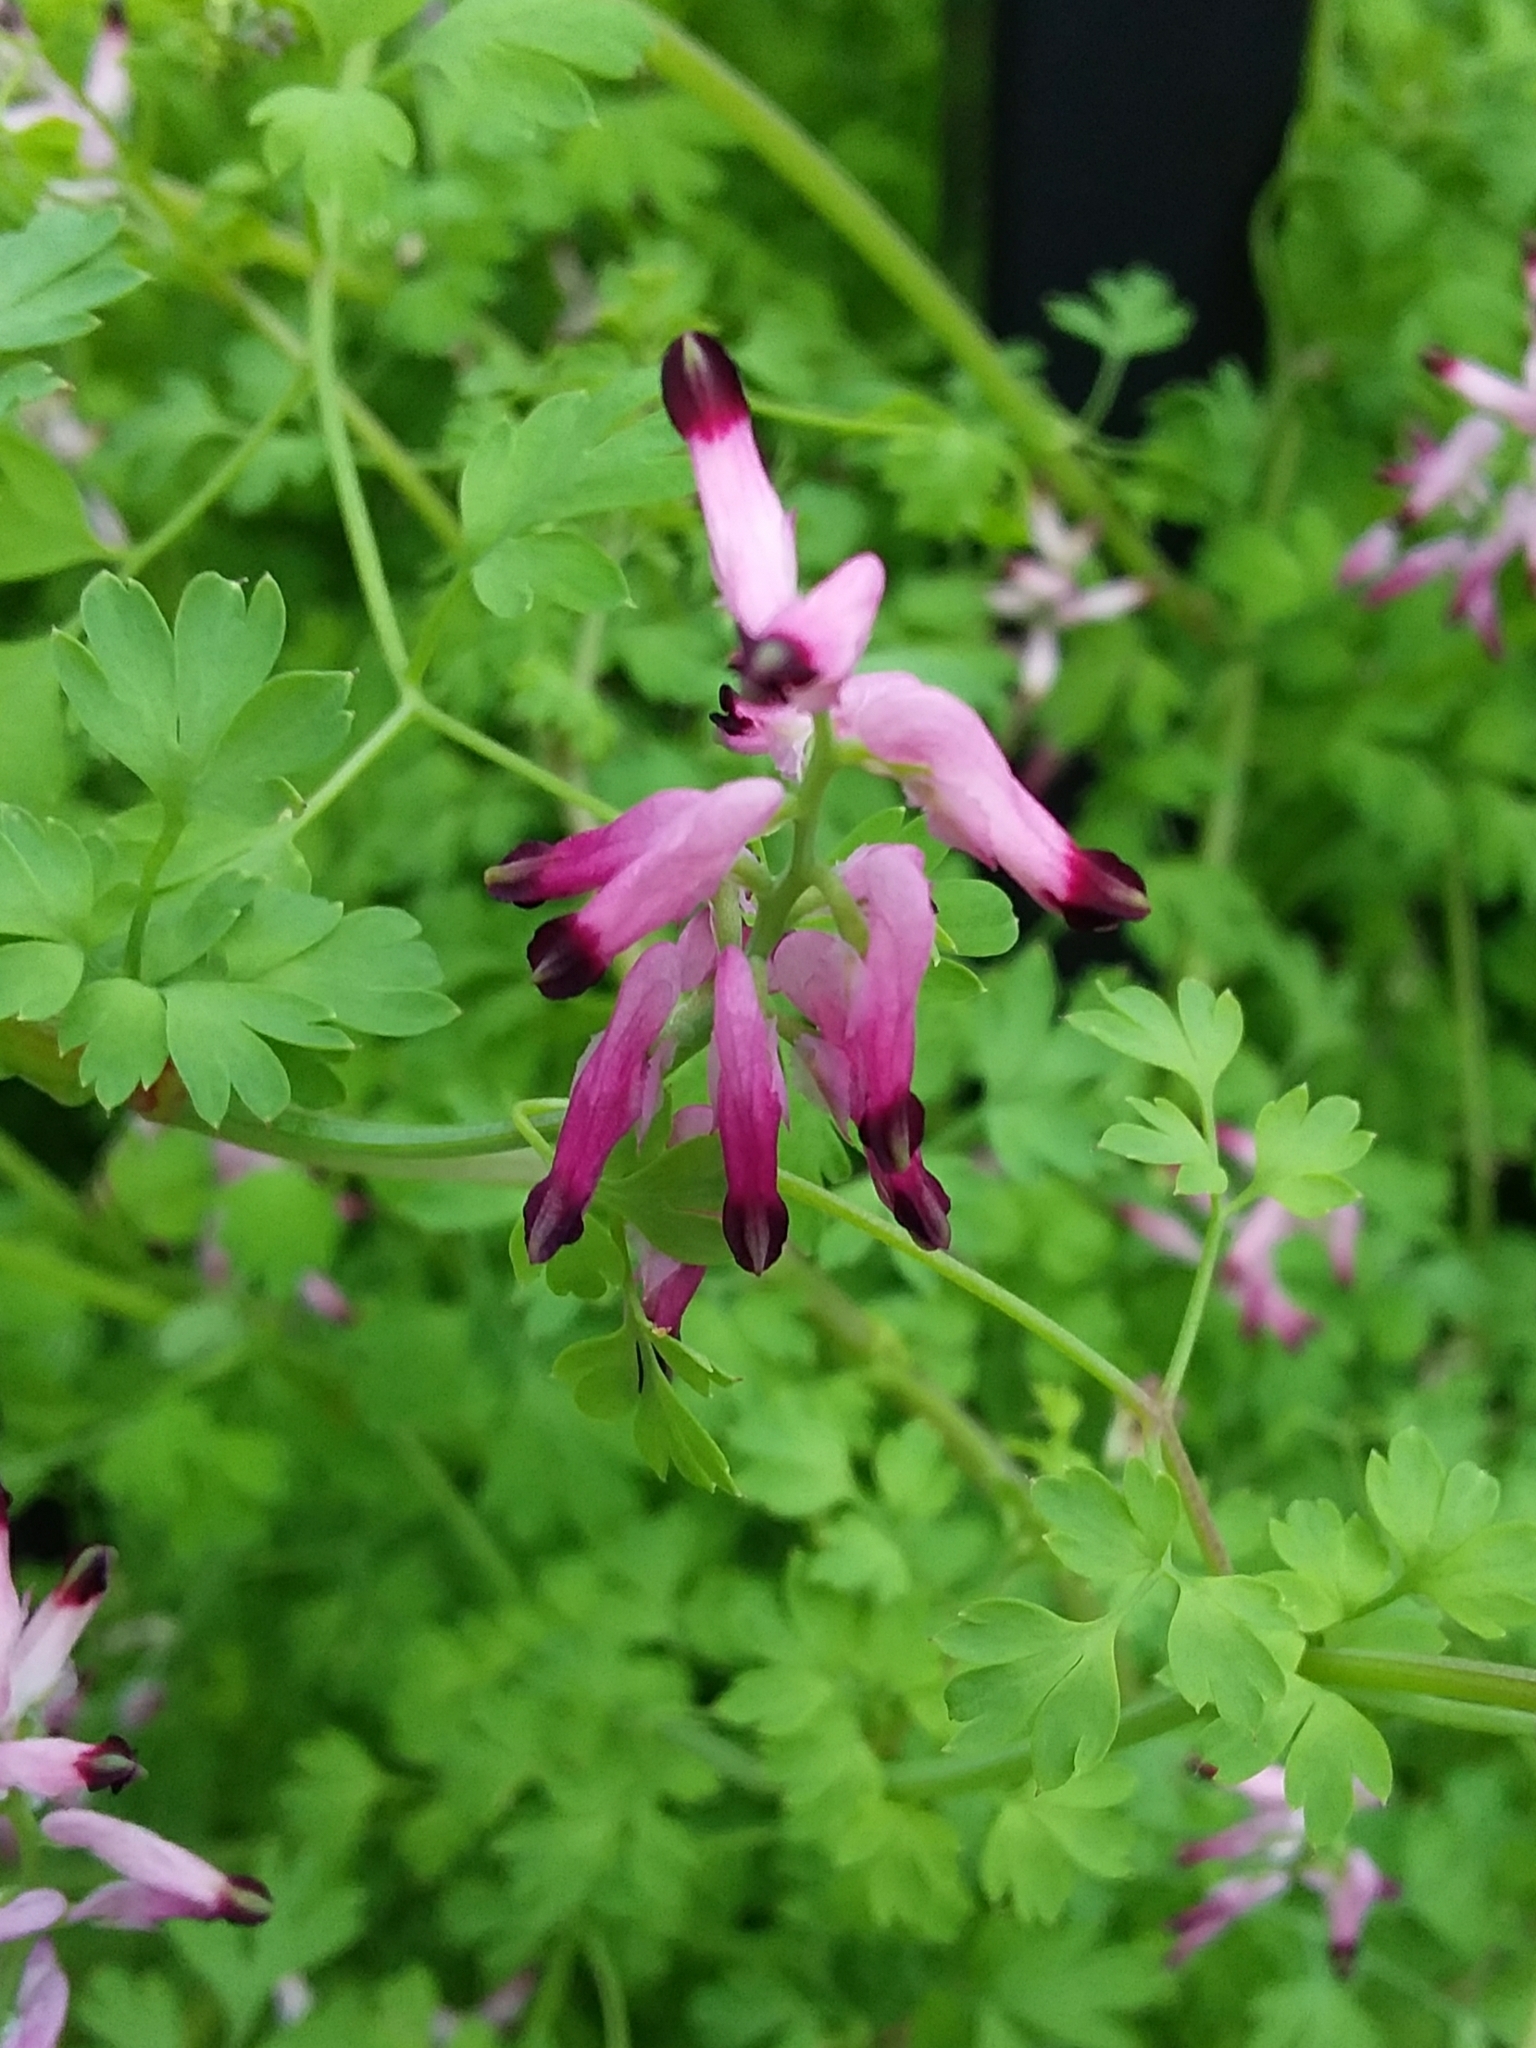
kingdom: Plantae
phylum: Tracheophyta
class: Magnoliopsida
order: Ranunculales
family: Papaveraceae
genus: Fumaria
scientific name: Fumaria muralis
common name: Common ramping-fumitory
